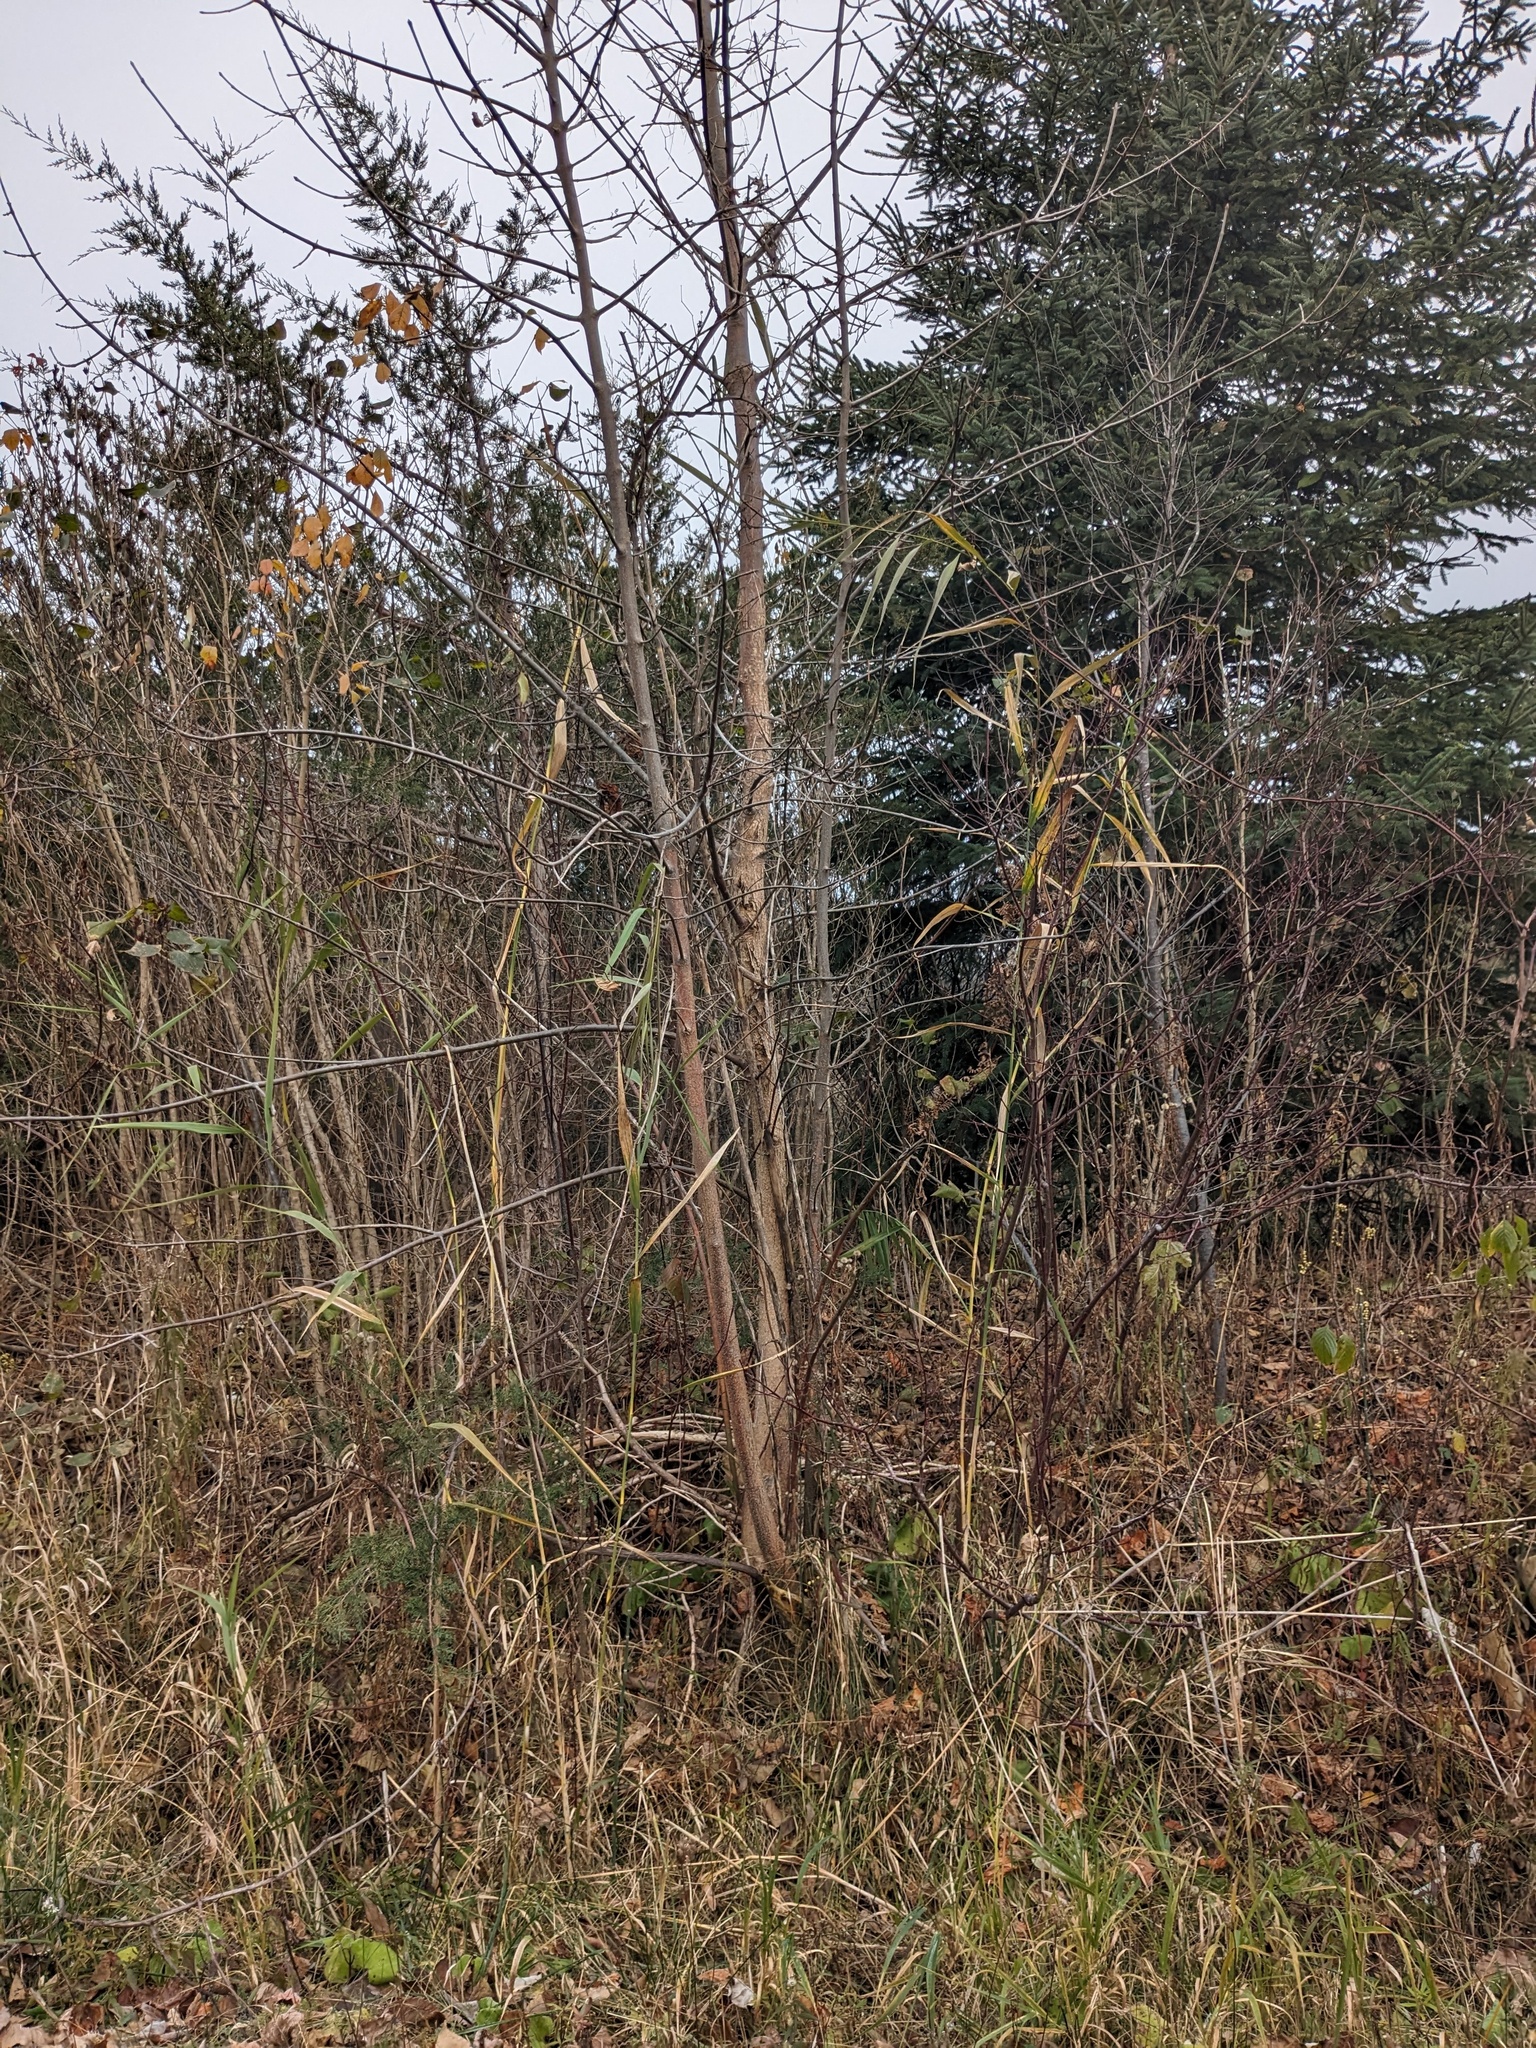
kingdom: Plantae
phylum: Tracheophyta
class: Liliopsida
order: Poales
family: Poaceae
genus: Phragmites
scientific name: Phragmites australis
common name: Common reed
